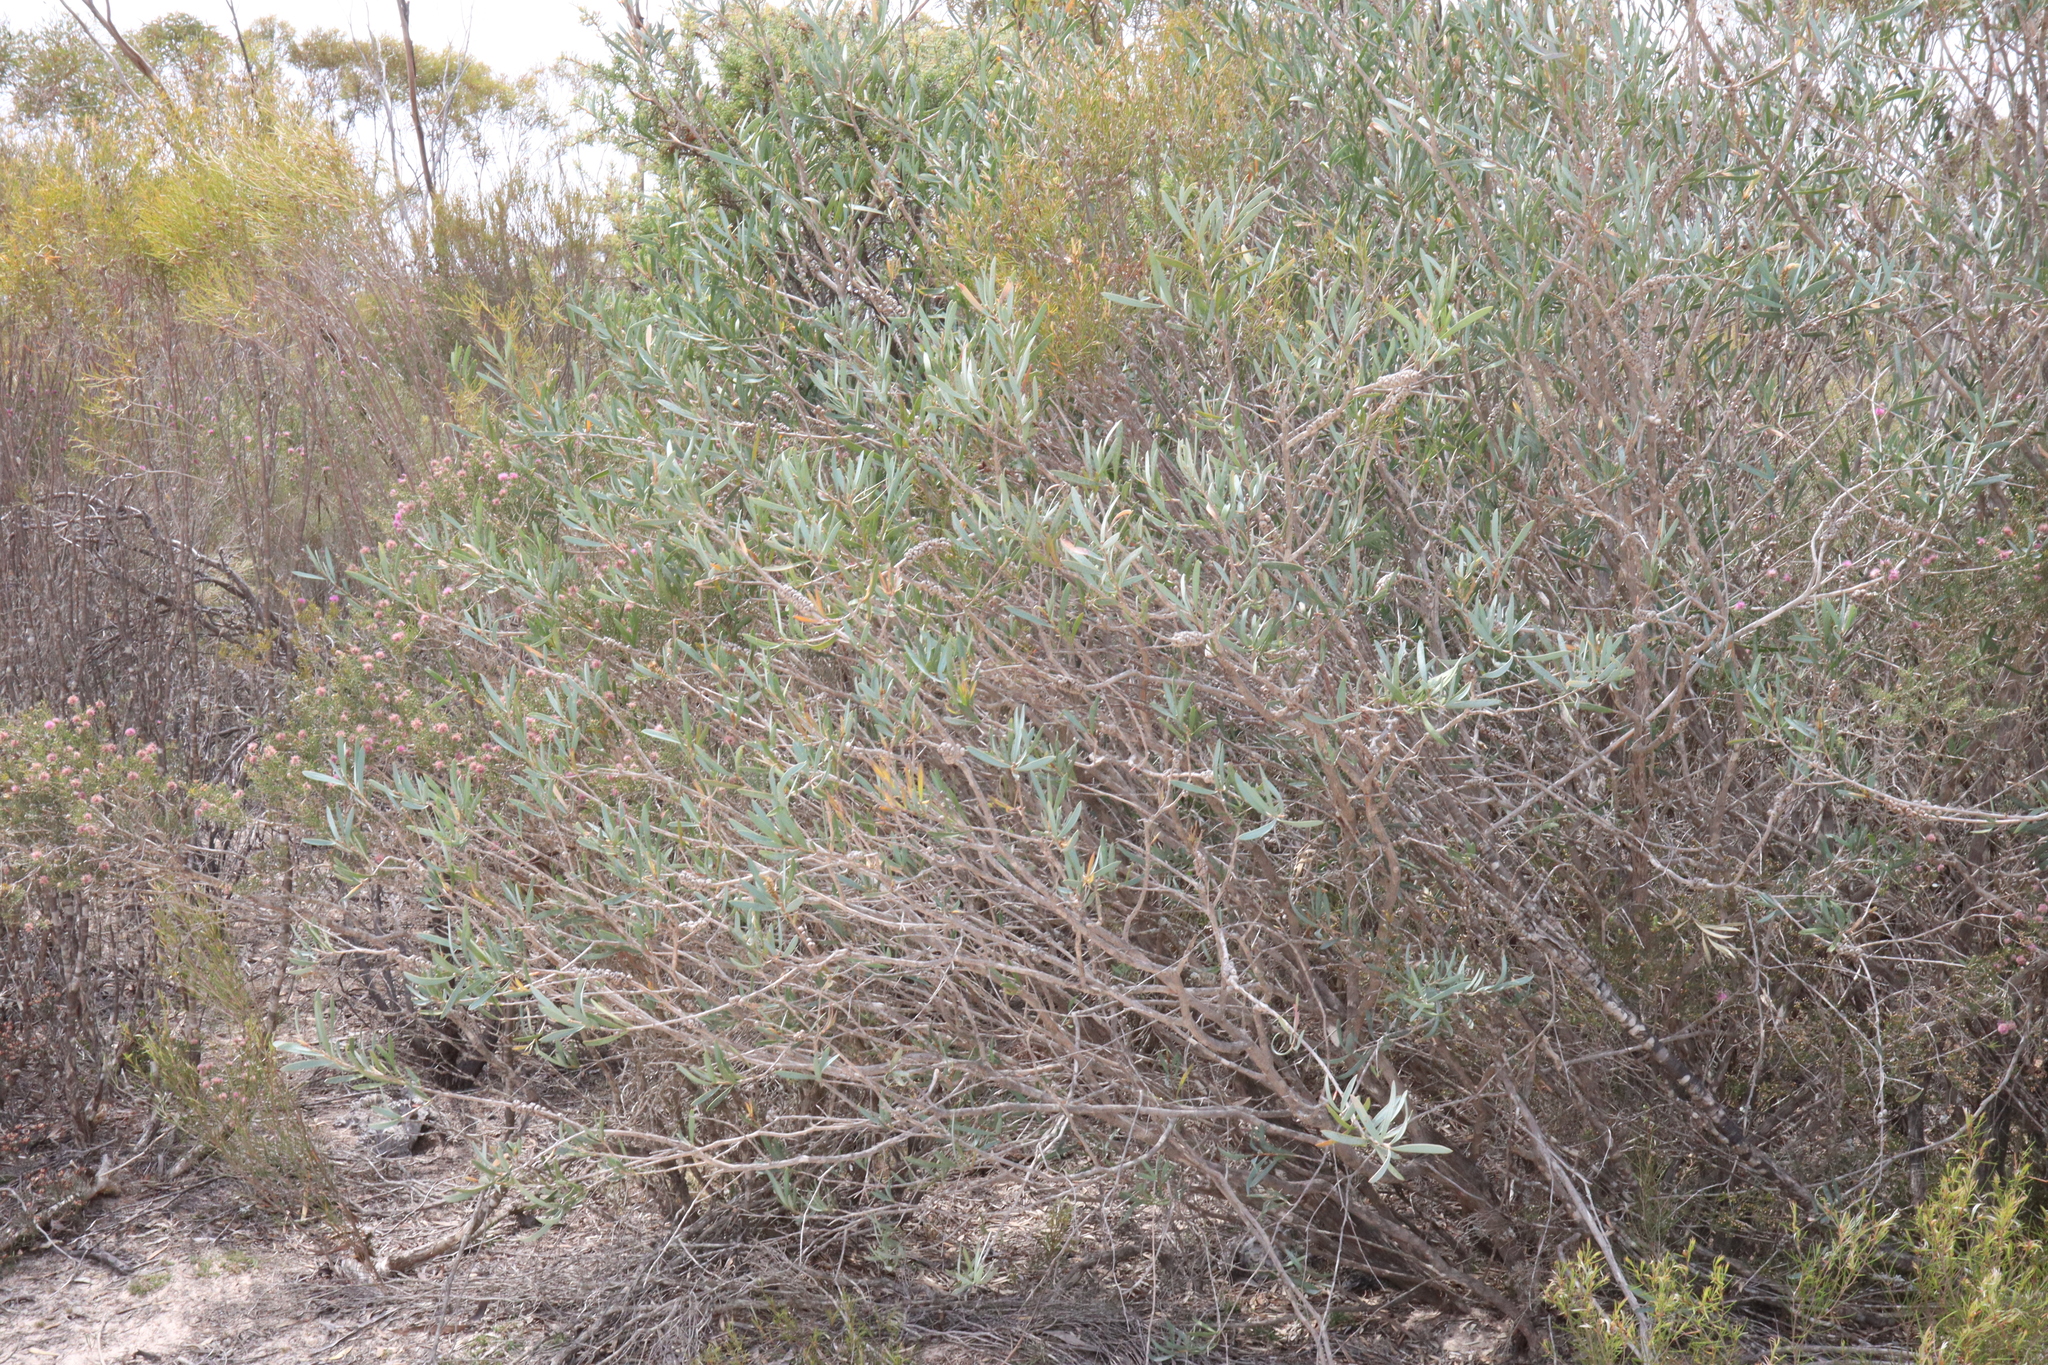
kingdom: Plantae
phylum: Tracheophyta
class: Magnoliopsida
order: Myrtales
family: Myrtaceae
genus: Callistemon
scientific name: Callistemon phoeniceus
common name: Lesser bottlebrush
